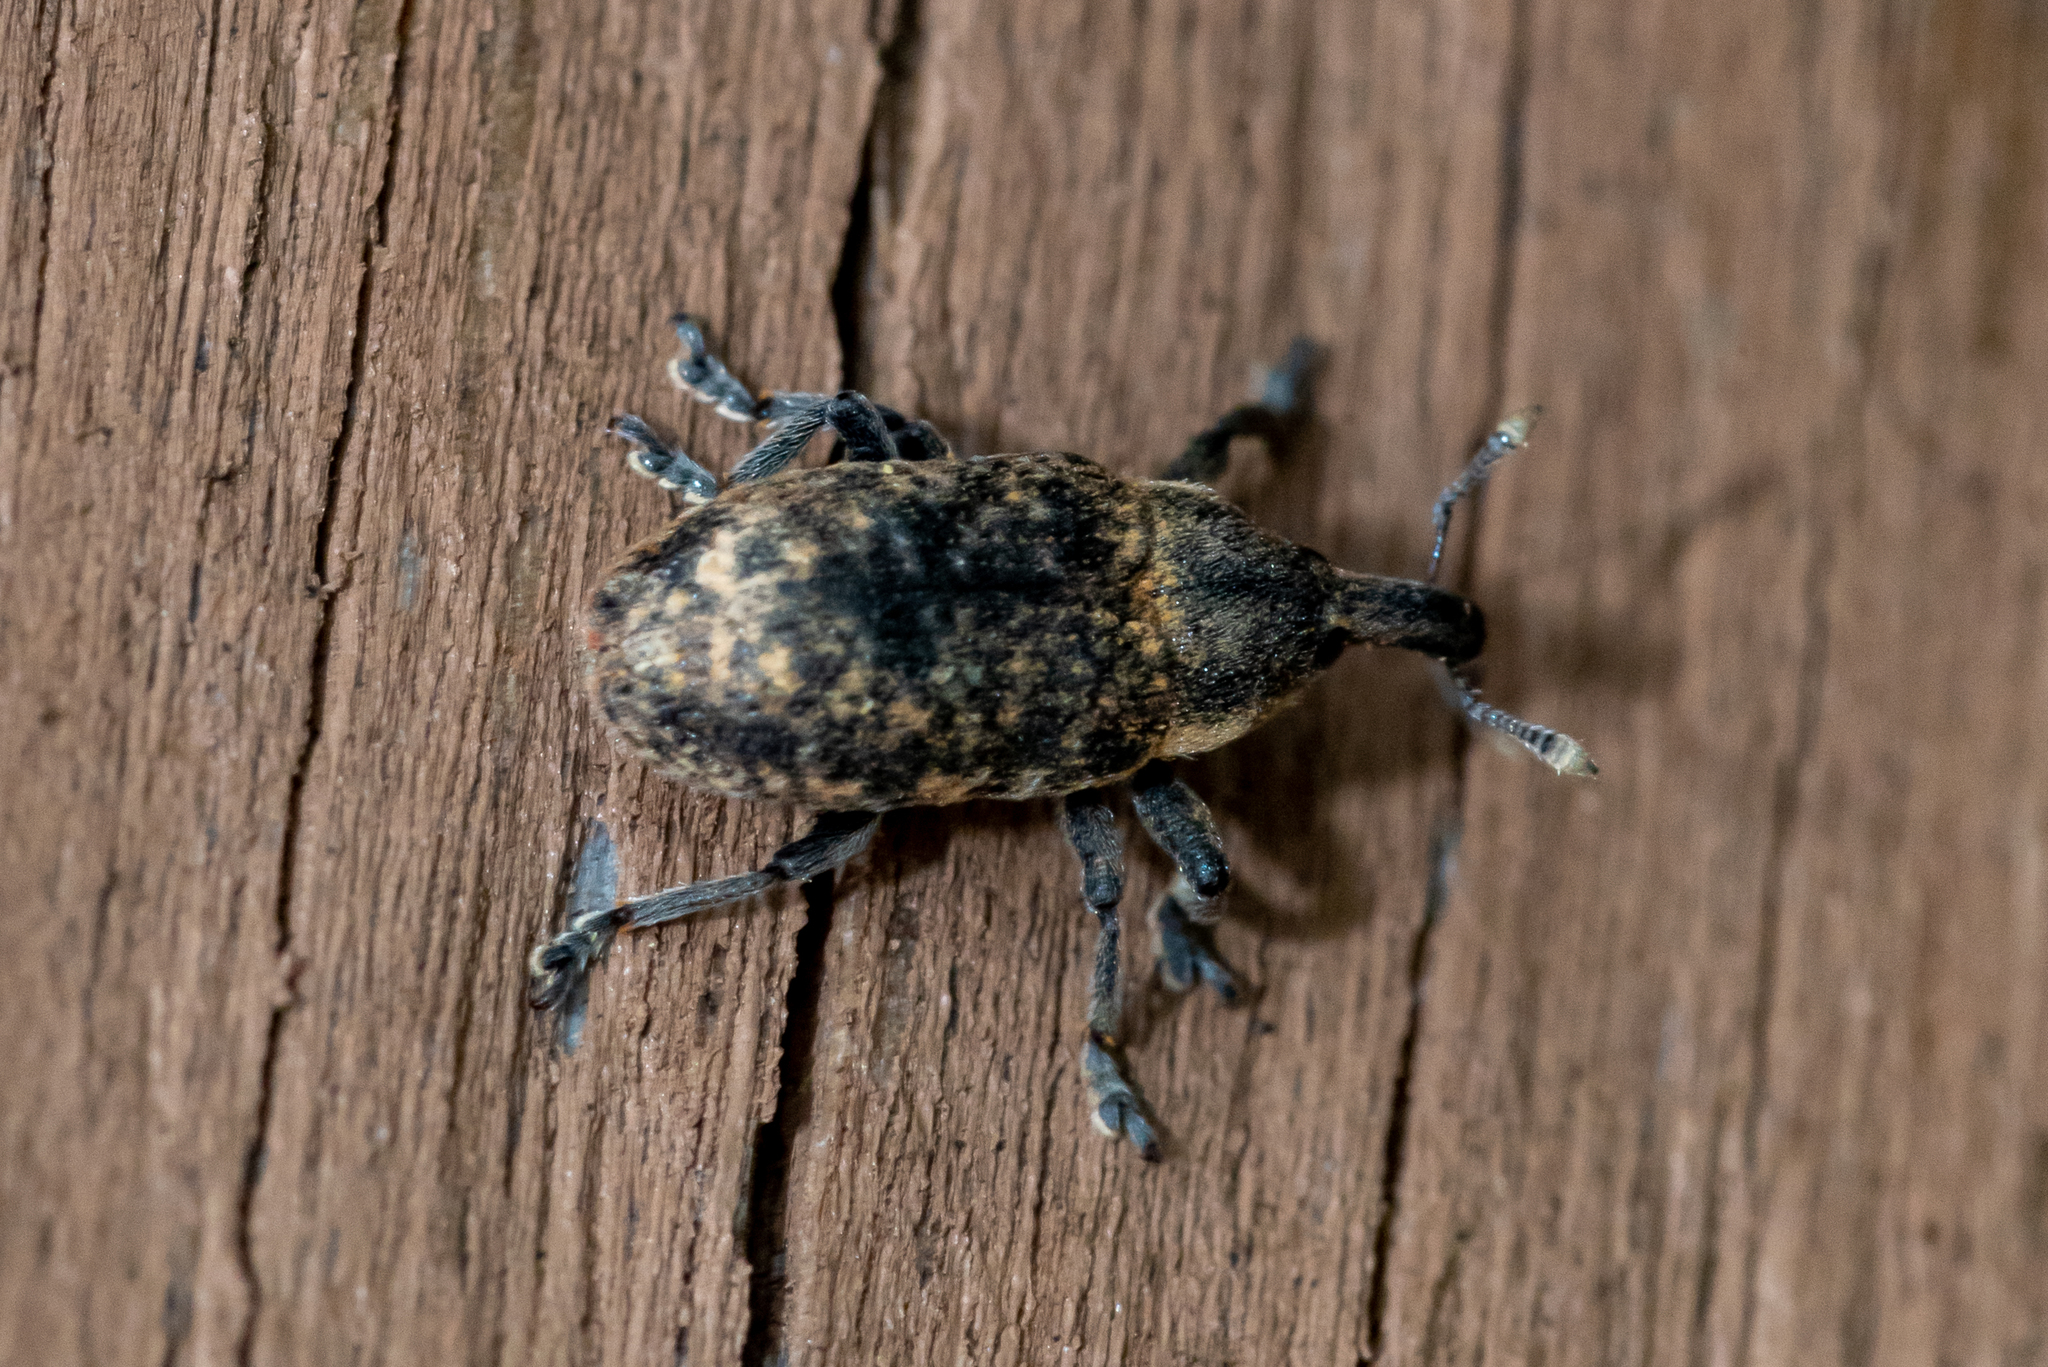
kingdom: Animalia
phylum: Arthropoda
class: Insecta
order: Coleoptera
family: Curculionidae
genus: Larinus
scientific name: Larinus carlinae
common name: Weevil
